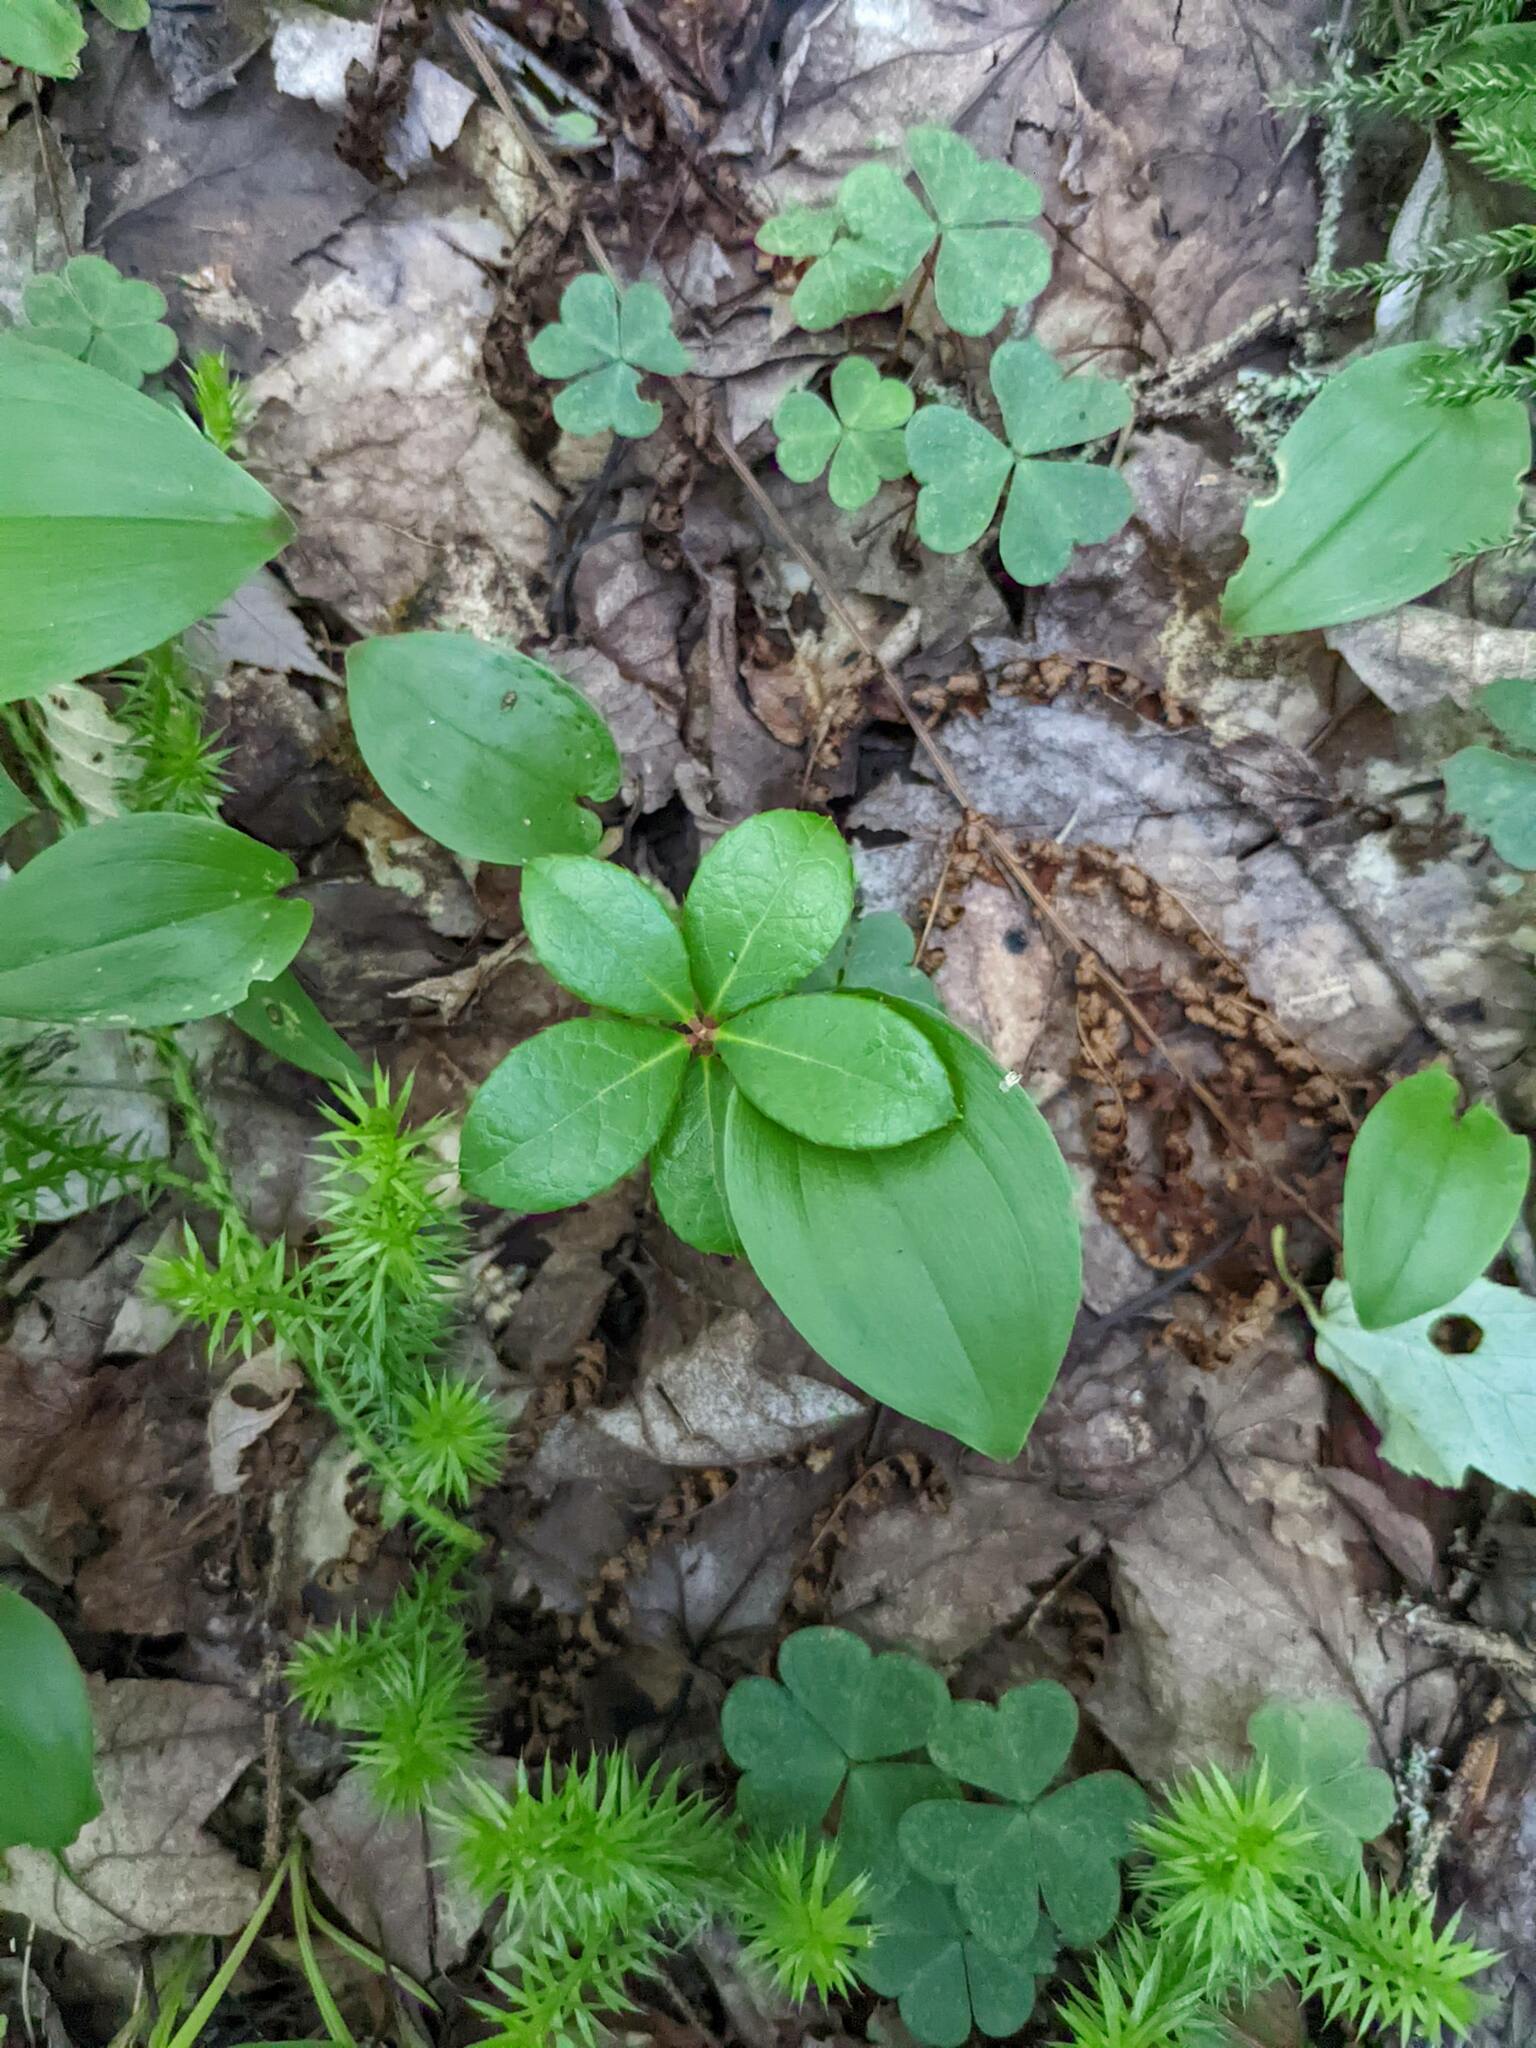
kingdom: Plantae
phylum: Tracheophyta
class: Lycopodiopsida
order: Lycopodiales
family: Lycopodiaceae
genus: Spinulum
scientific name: Spinulum annotinum
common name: Interrupted club-moss
